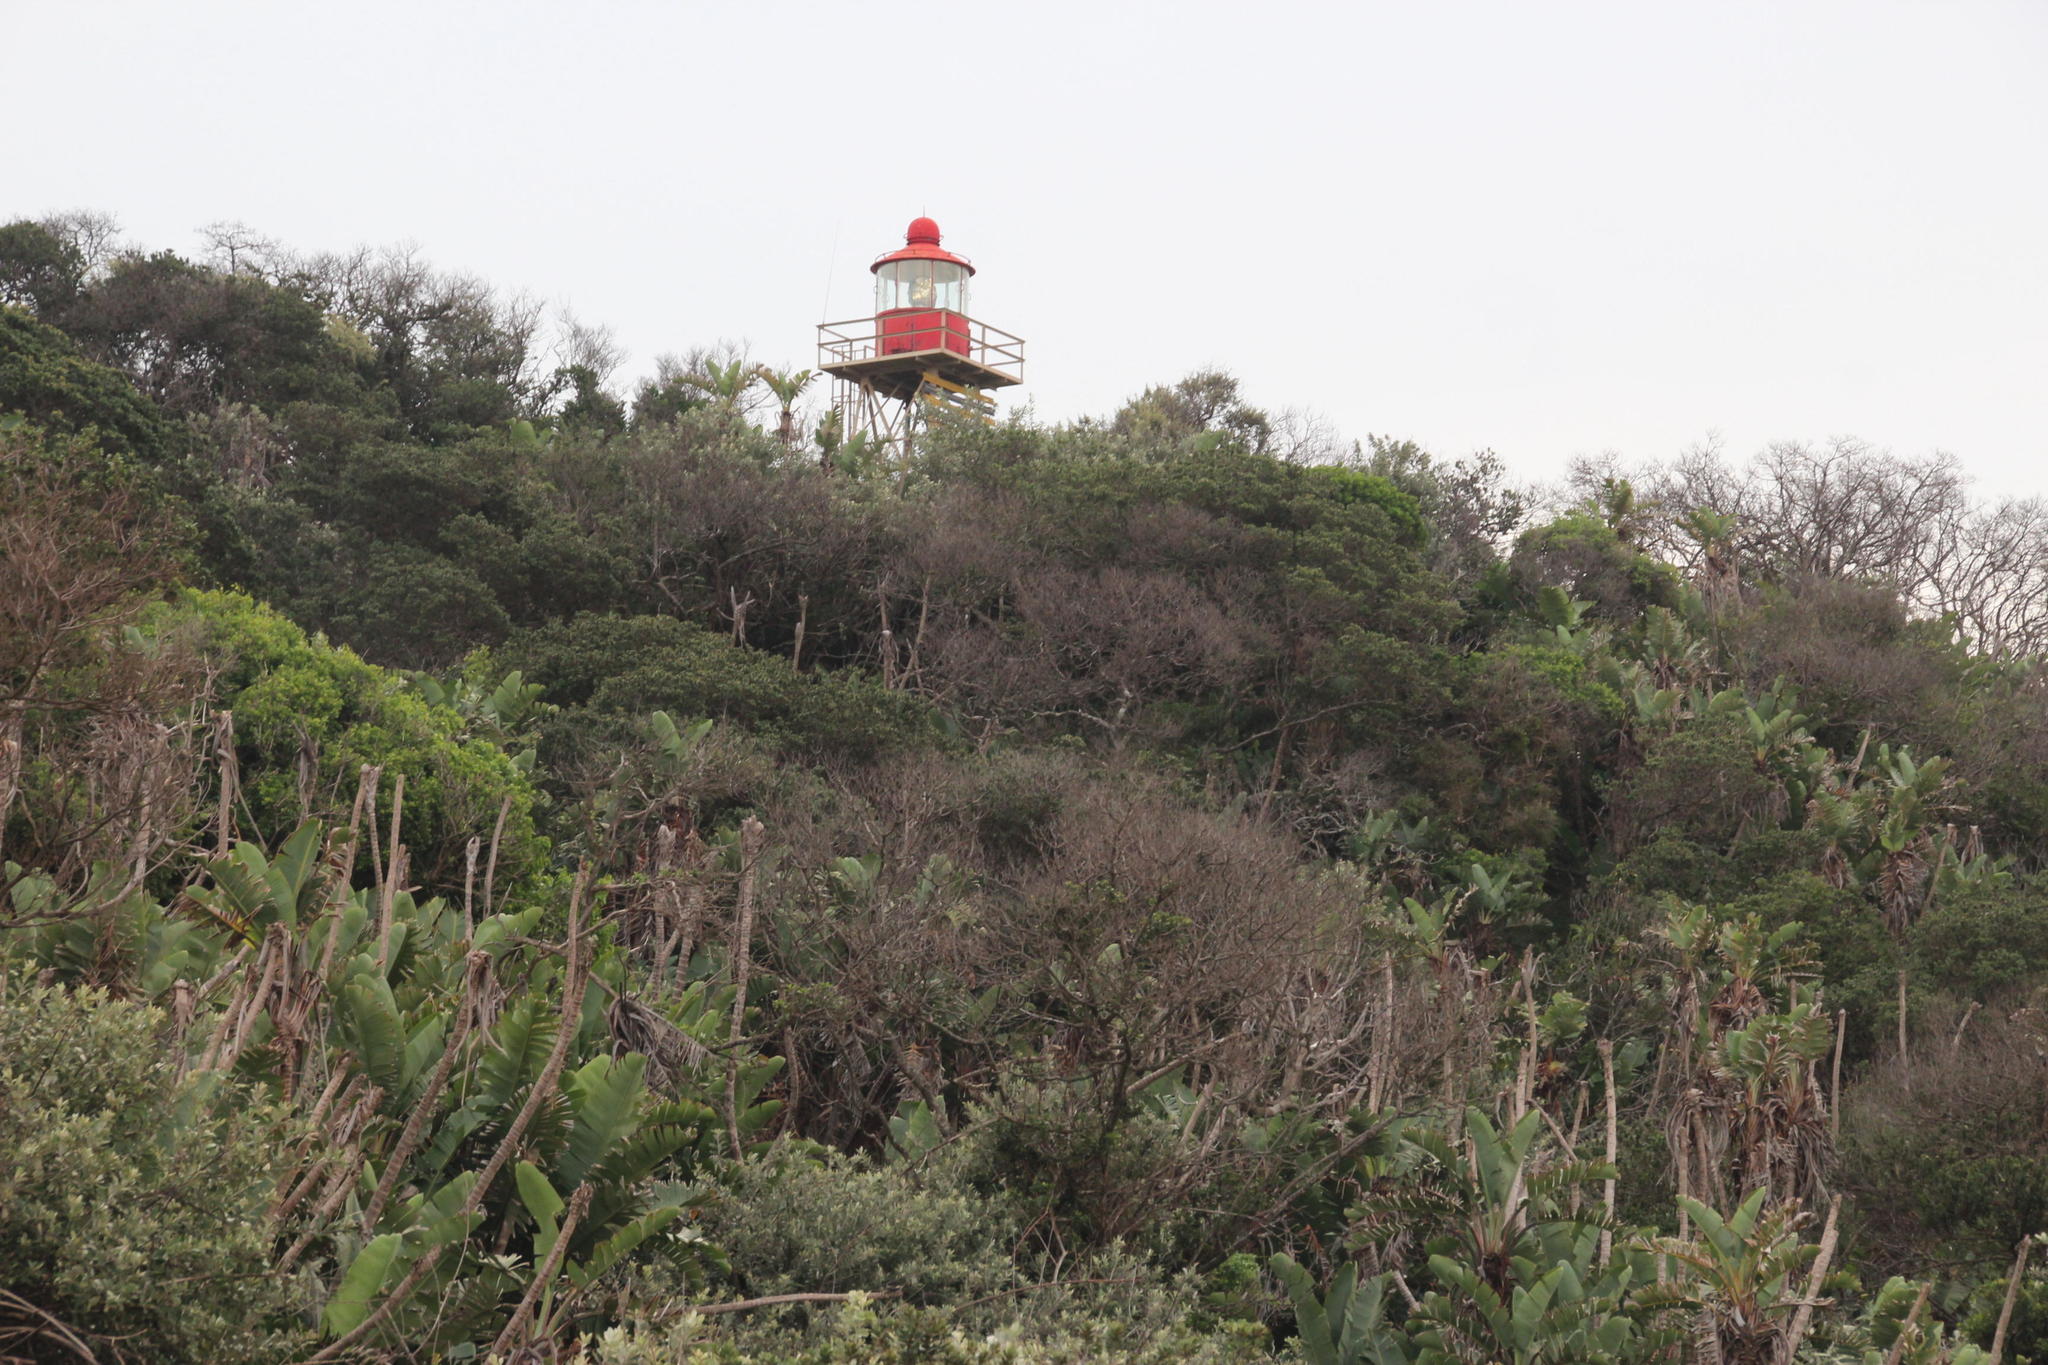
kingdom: Plantae
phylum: Tracheophyta
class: Liliopsida
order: Zingiberales
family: Strelitziaceae
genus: Strelitzia
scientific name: Strelitzia nicolai
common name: Bird-of-paradise tree
